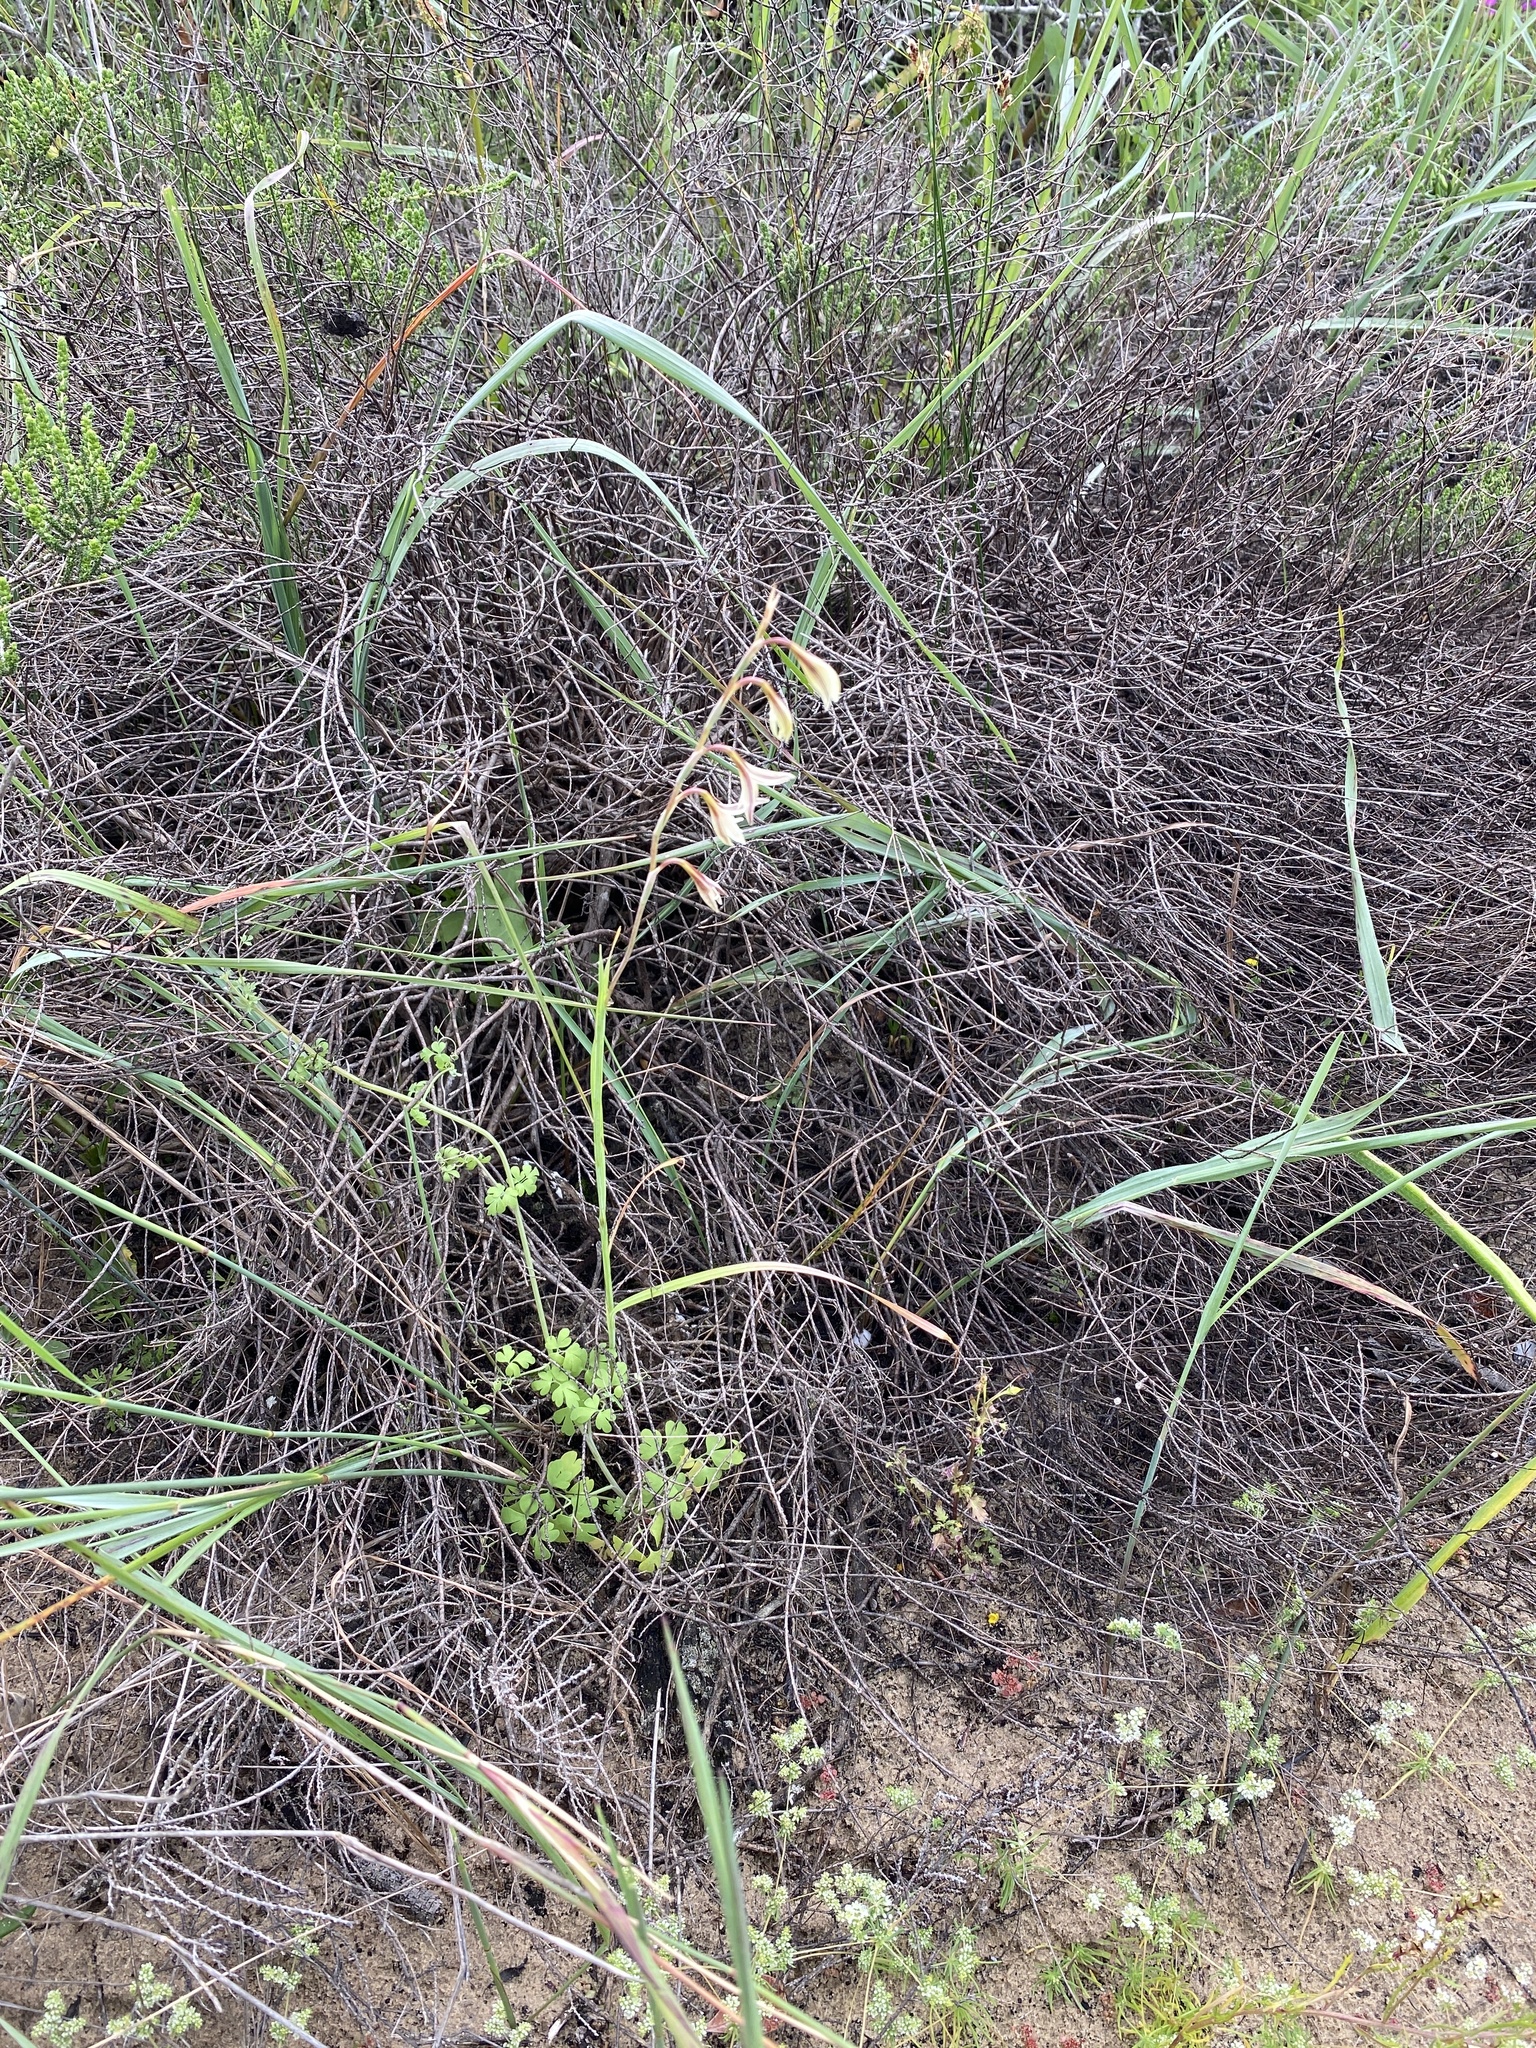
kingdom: Plantae
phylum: Tracheophyta
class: Liliopsida
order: Asparagales
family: Iridaceae
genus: Hesperantha
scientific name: Hesperantha radiata
